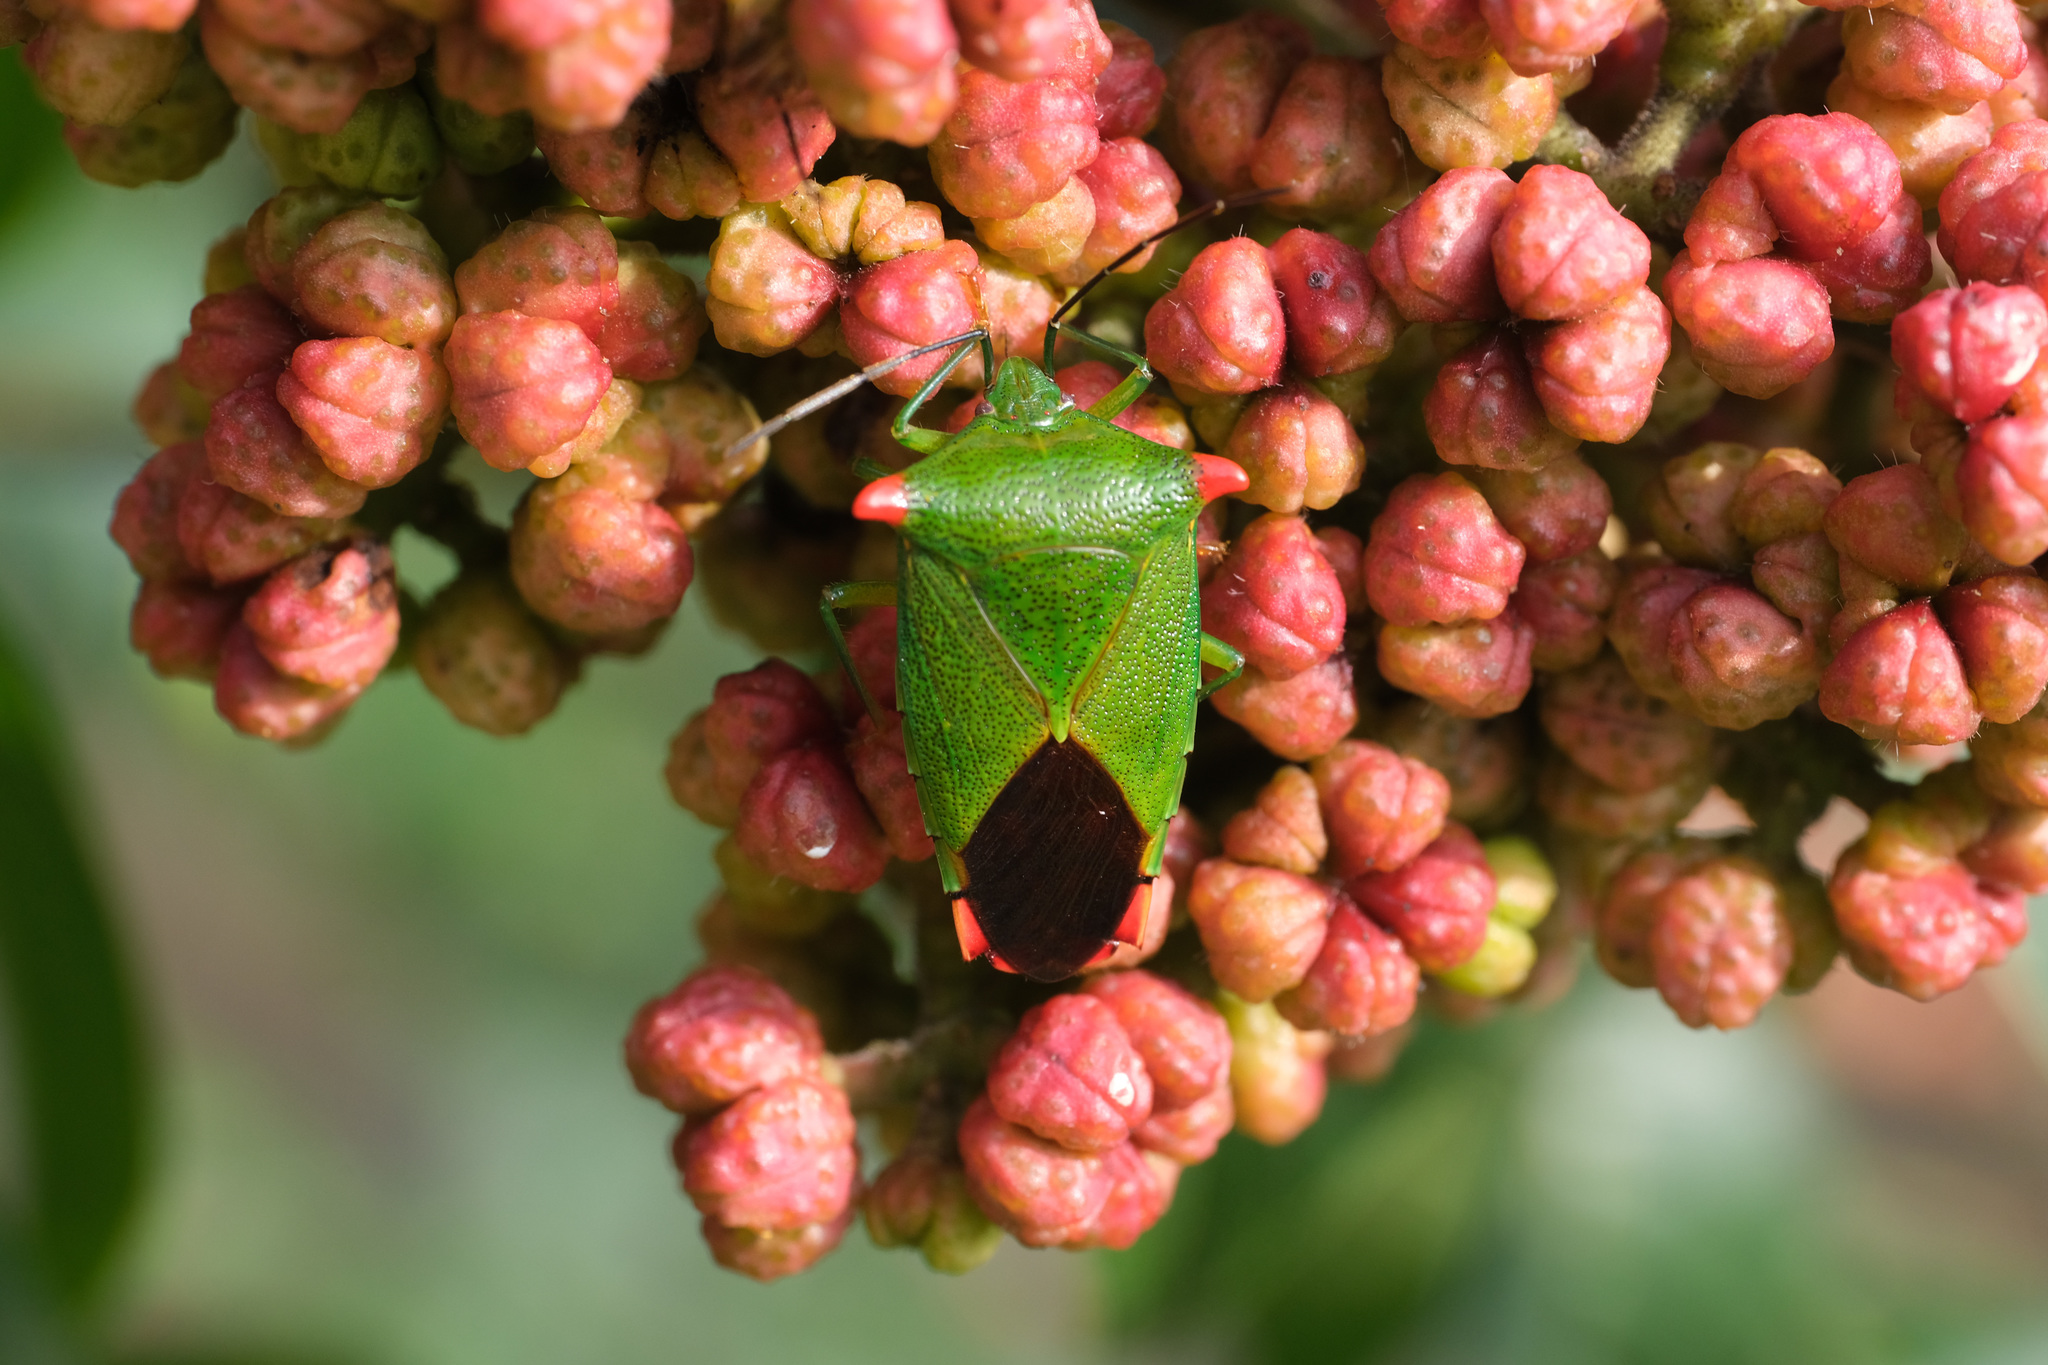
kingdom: Animalia
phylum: Arthropoda
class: Insecta
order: Hemiptera
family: Acanthosomatidae
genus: Acanthosoma
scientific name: Acanthosoma labiduroides
